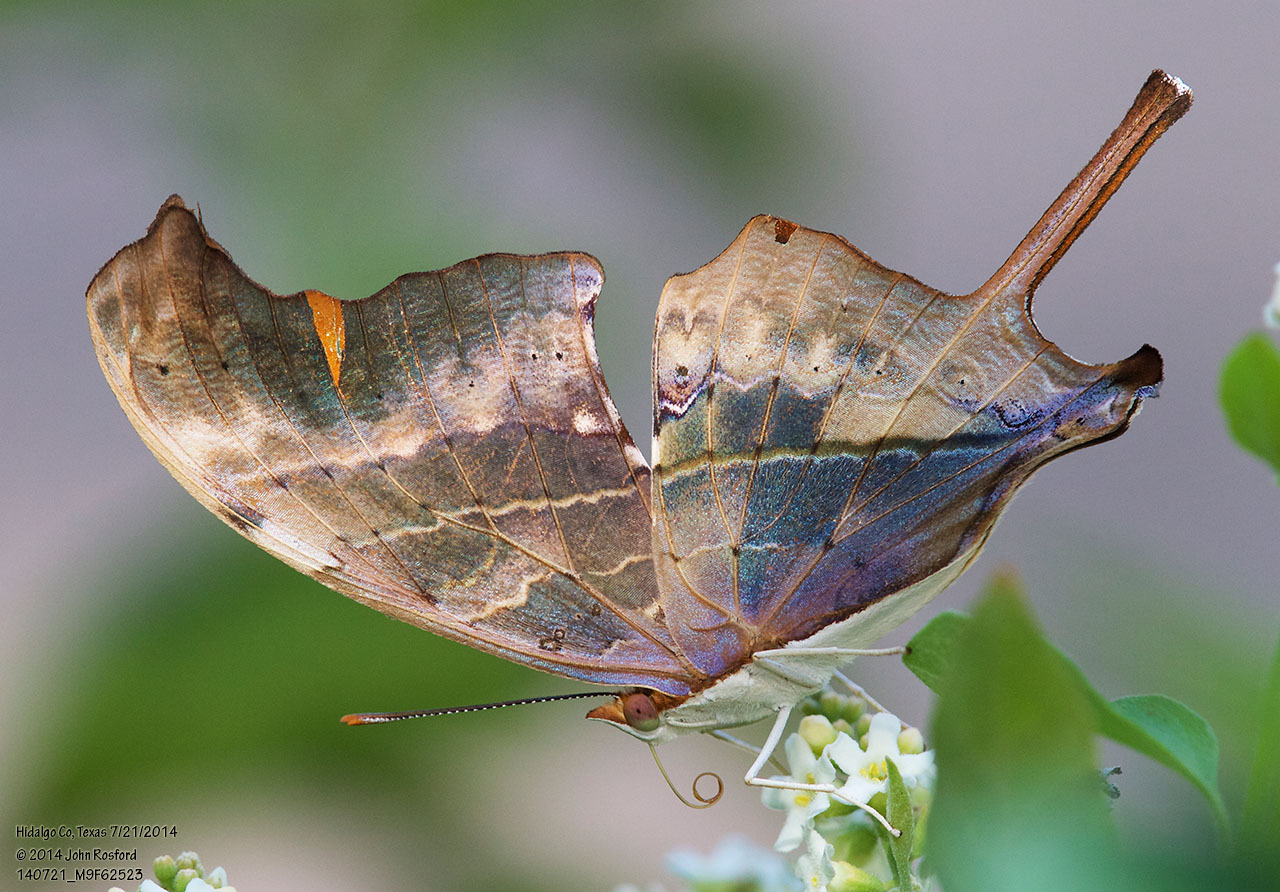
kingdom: Animalia
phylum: Arthropoda
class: Insecta
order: Lepidoptera
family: Nymphalidae
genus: Marpesia
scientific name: Marpesia petreus
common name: Red dagger wing
